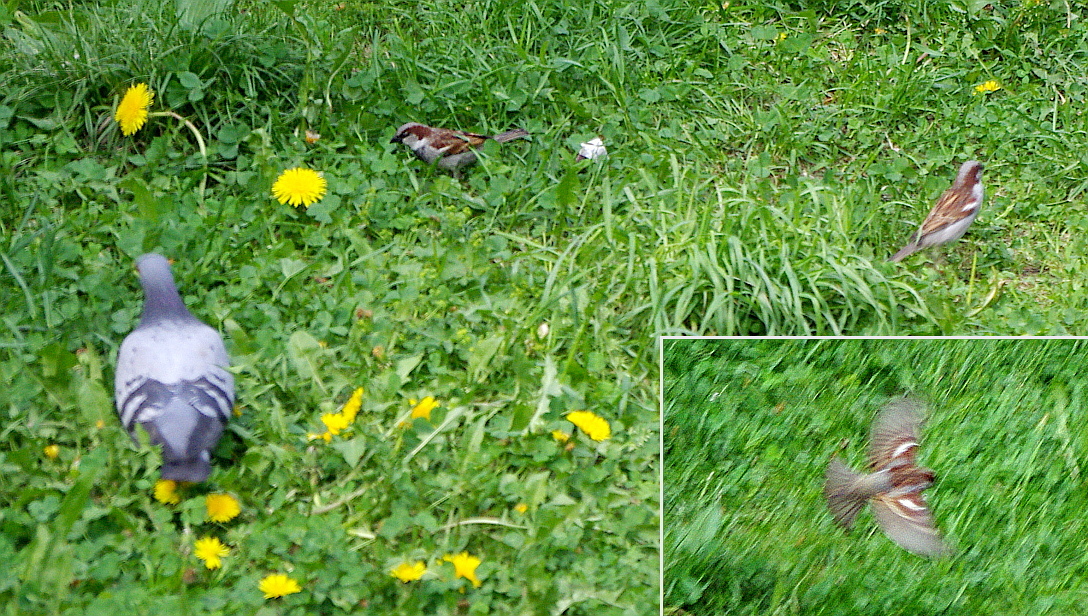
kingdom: Animalia
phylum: Chordata
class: Aves
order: Passeriformes
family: Passeridae
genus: Passer
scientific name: Passer domesticus
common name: House sparrow
